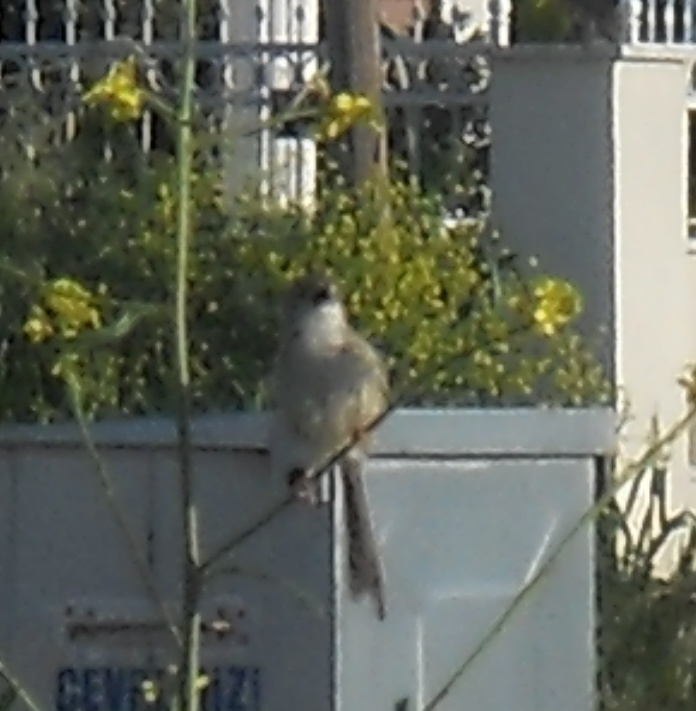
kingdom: Animalia
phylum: Chordata
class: Aves
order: Passeriformes
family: Cisticolidae
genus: Prinia
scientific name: Prinia lepida
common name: Delicate prinia
